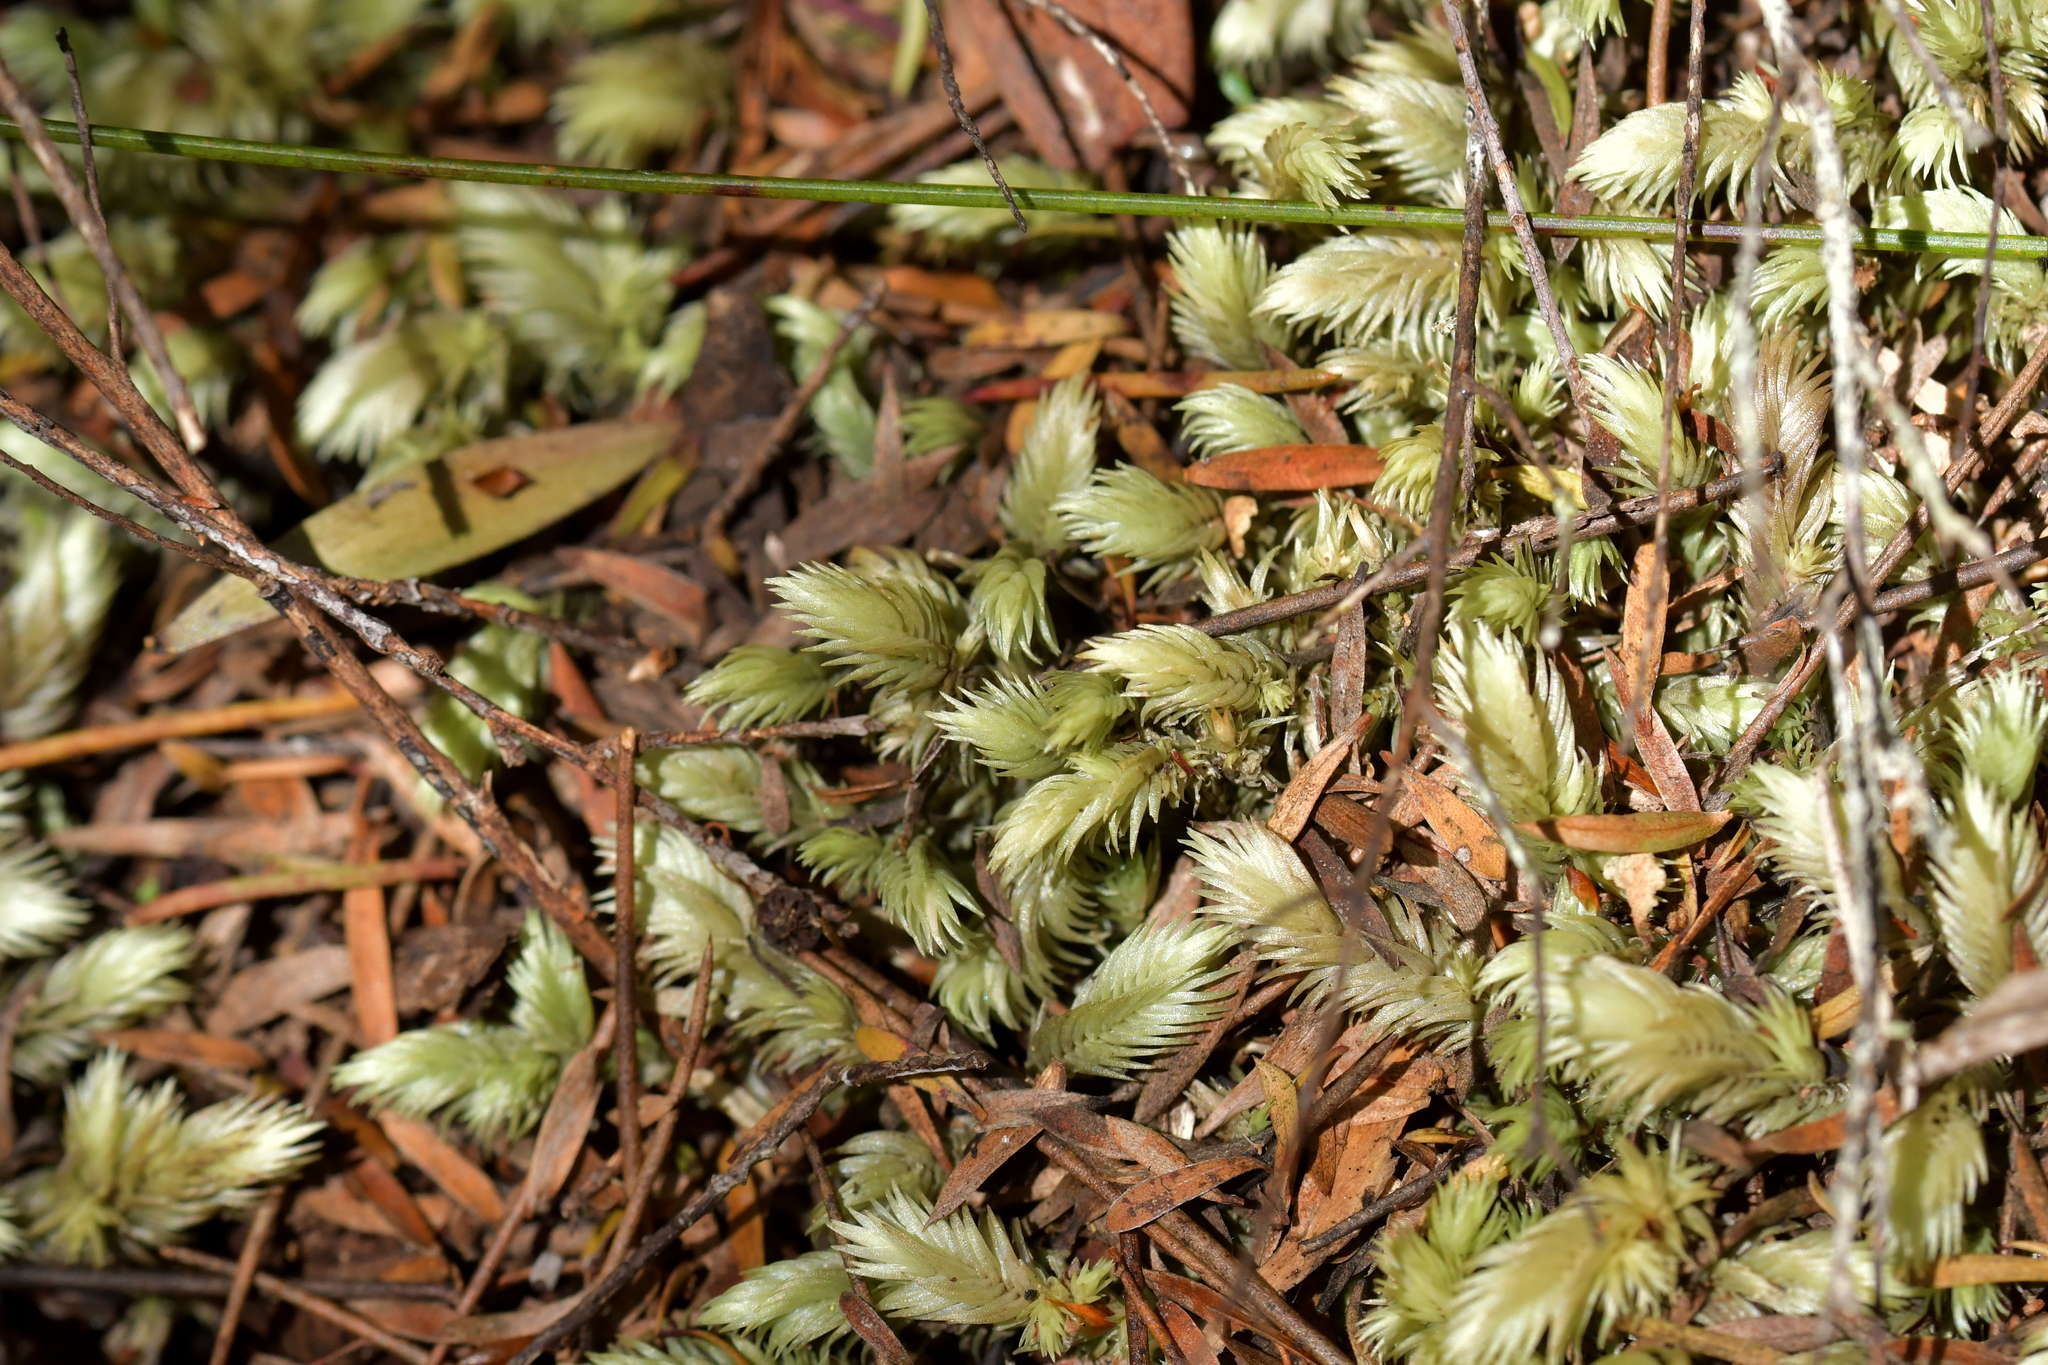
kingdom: Plantae
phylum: Bryophyta
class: Bryopsida
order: Dicranales
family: Leucobryaceae
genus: Leucobryum
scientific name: Leucobryum javense
